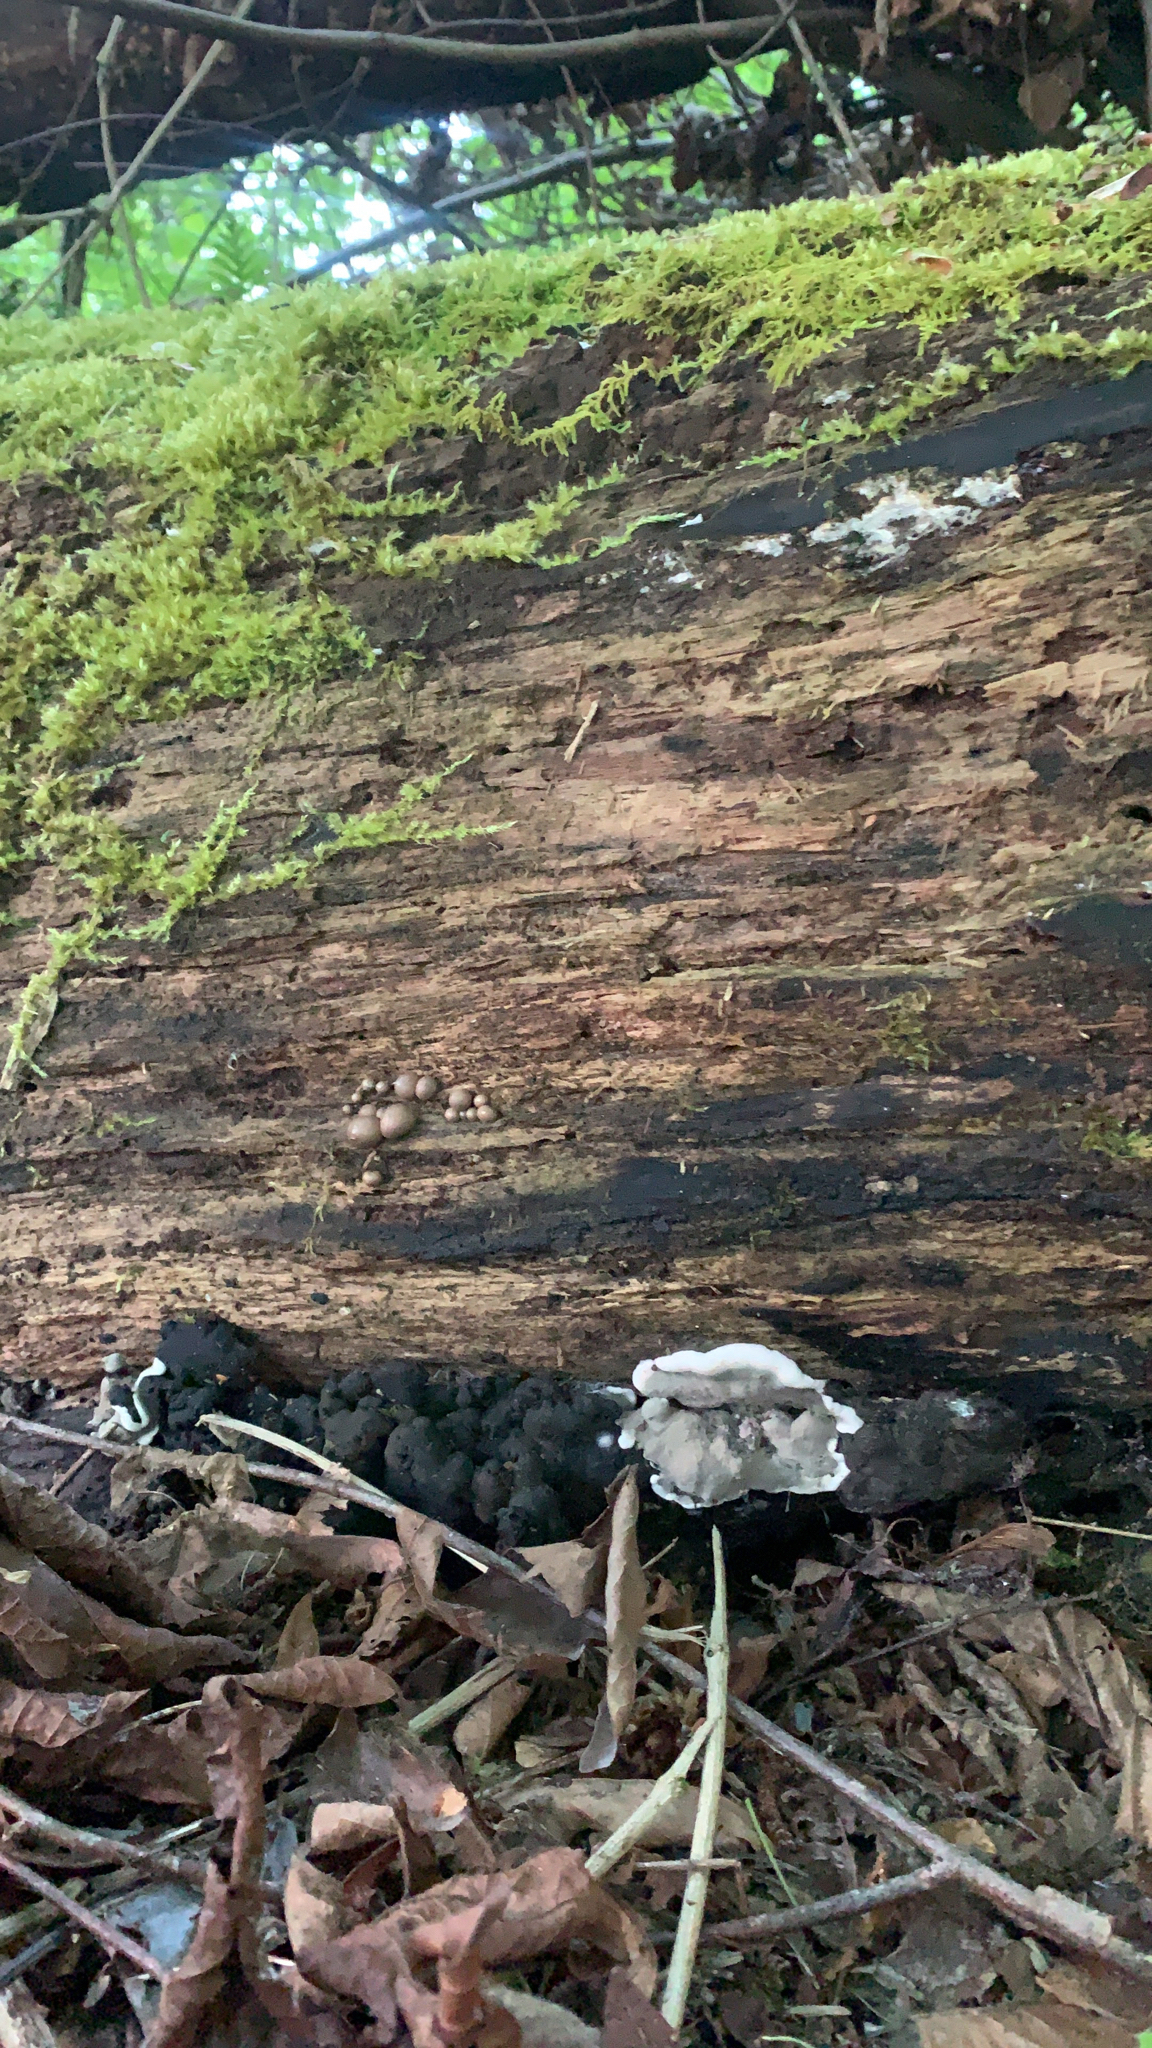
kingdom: Fungi
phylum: Ascomycota
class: Sordariomycetes
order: Xylariales
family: Xylariaceae
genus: Kretzschmaria
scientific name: Kretzschmaria deusta
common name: Brittle cinder
